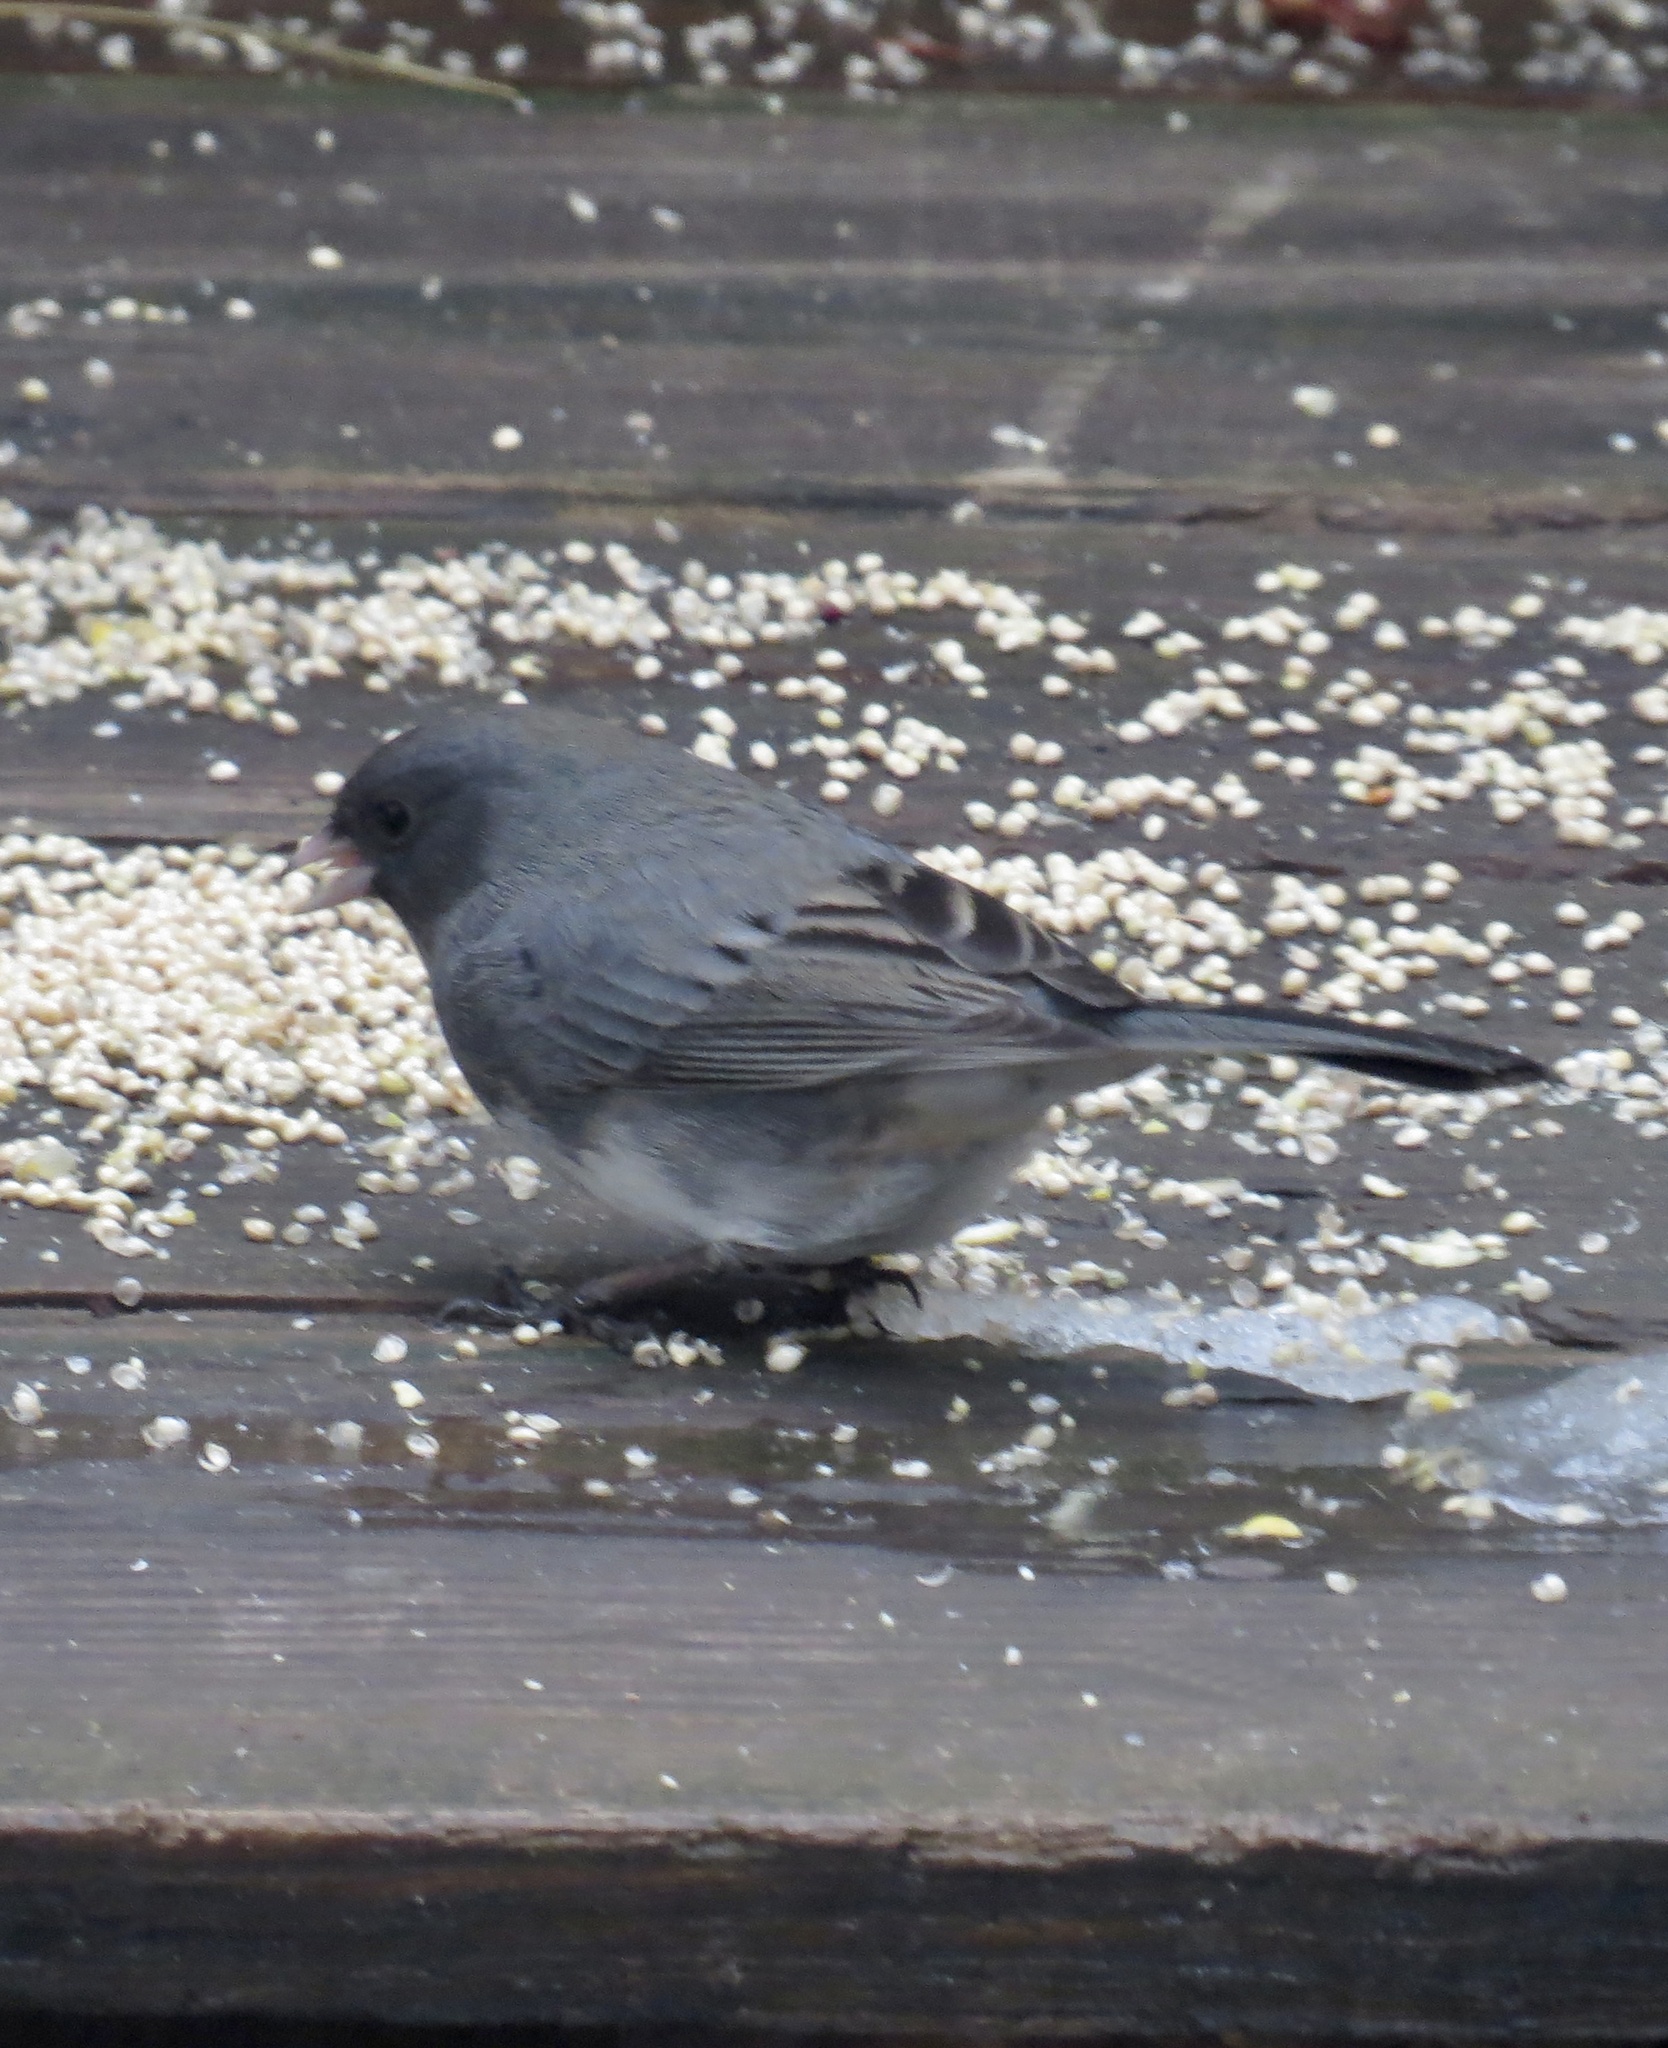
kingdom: Animalia
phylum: Chordata
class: Aves
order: Passeriformes
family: Passerellidae
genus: Junco
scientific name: Junco hyemalis
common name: Dark-eyed junco
